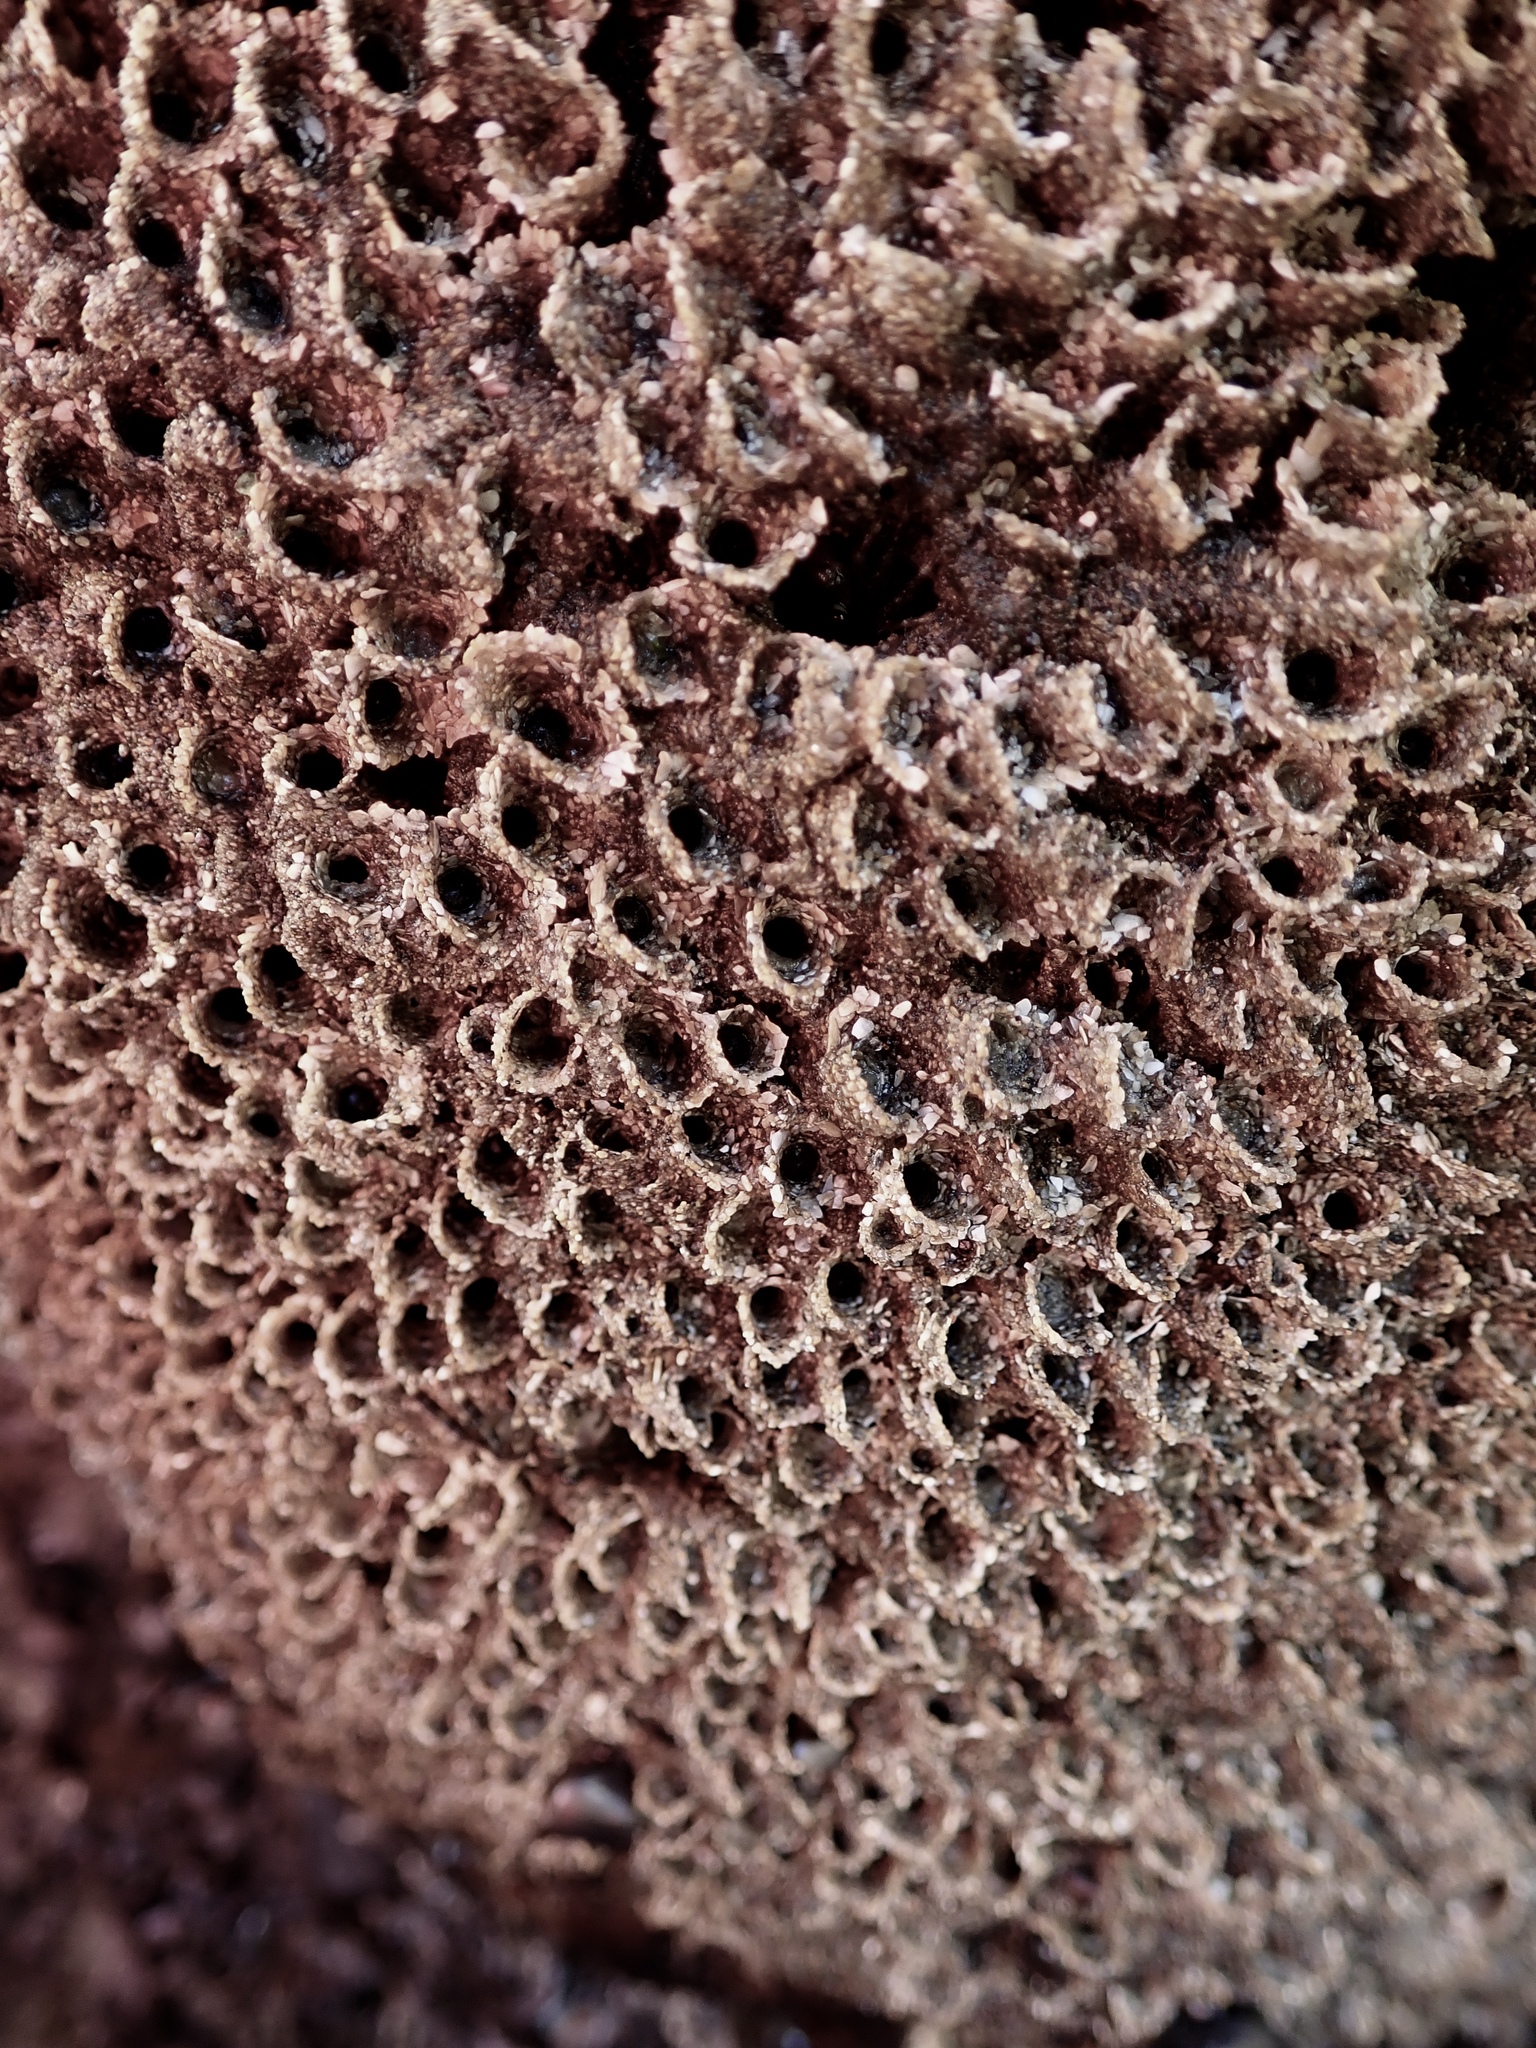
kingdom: Animalia
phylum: Annelida
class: Polychaeta
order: Sabellida
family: Sabellariidae
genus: Phragmatopoma
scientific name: Phragmatopoma californica
